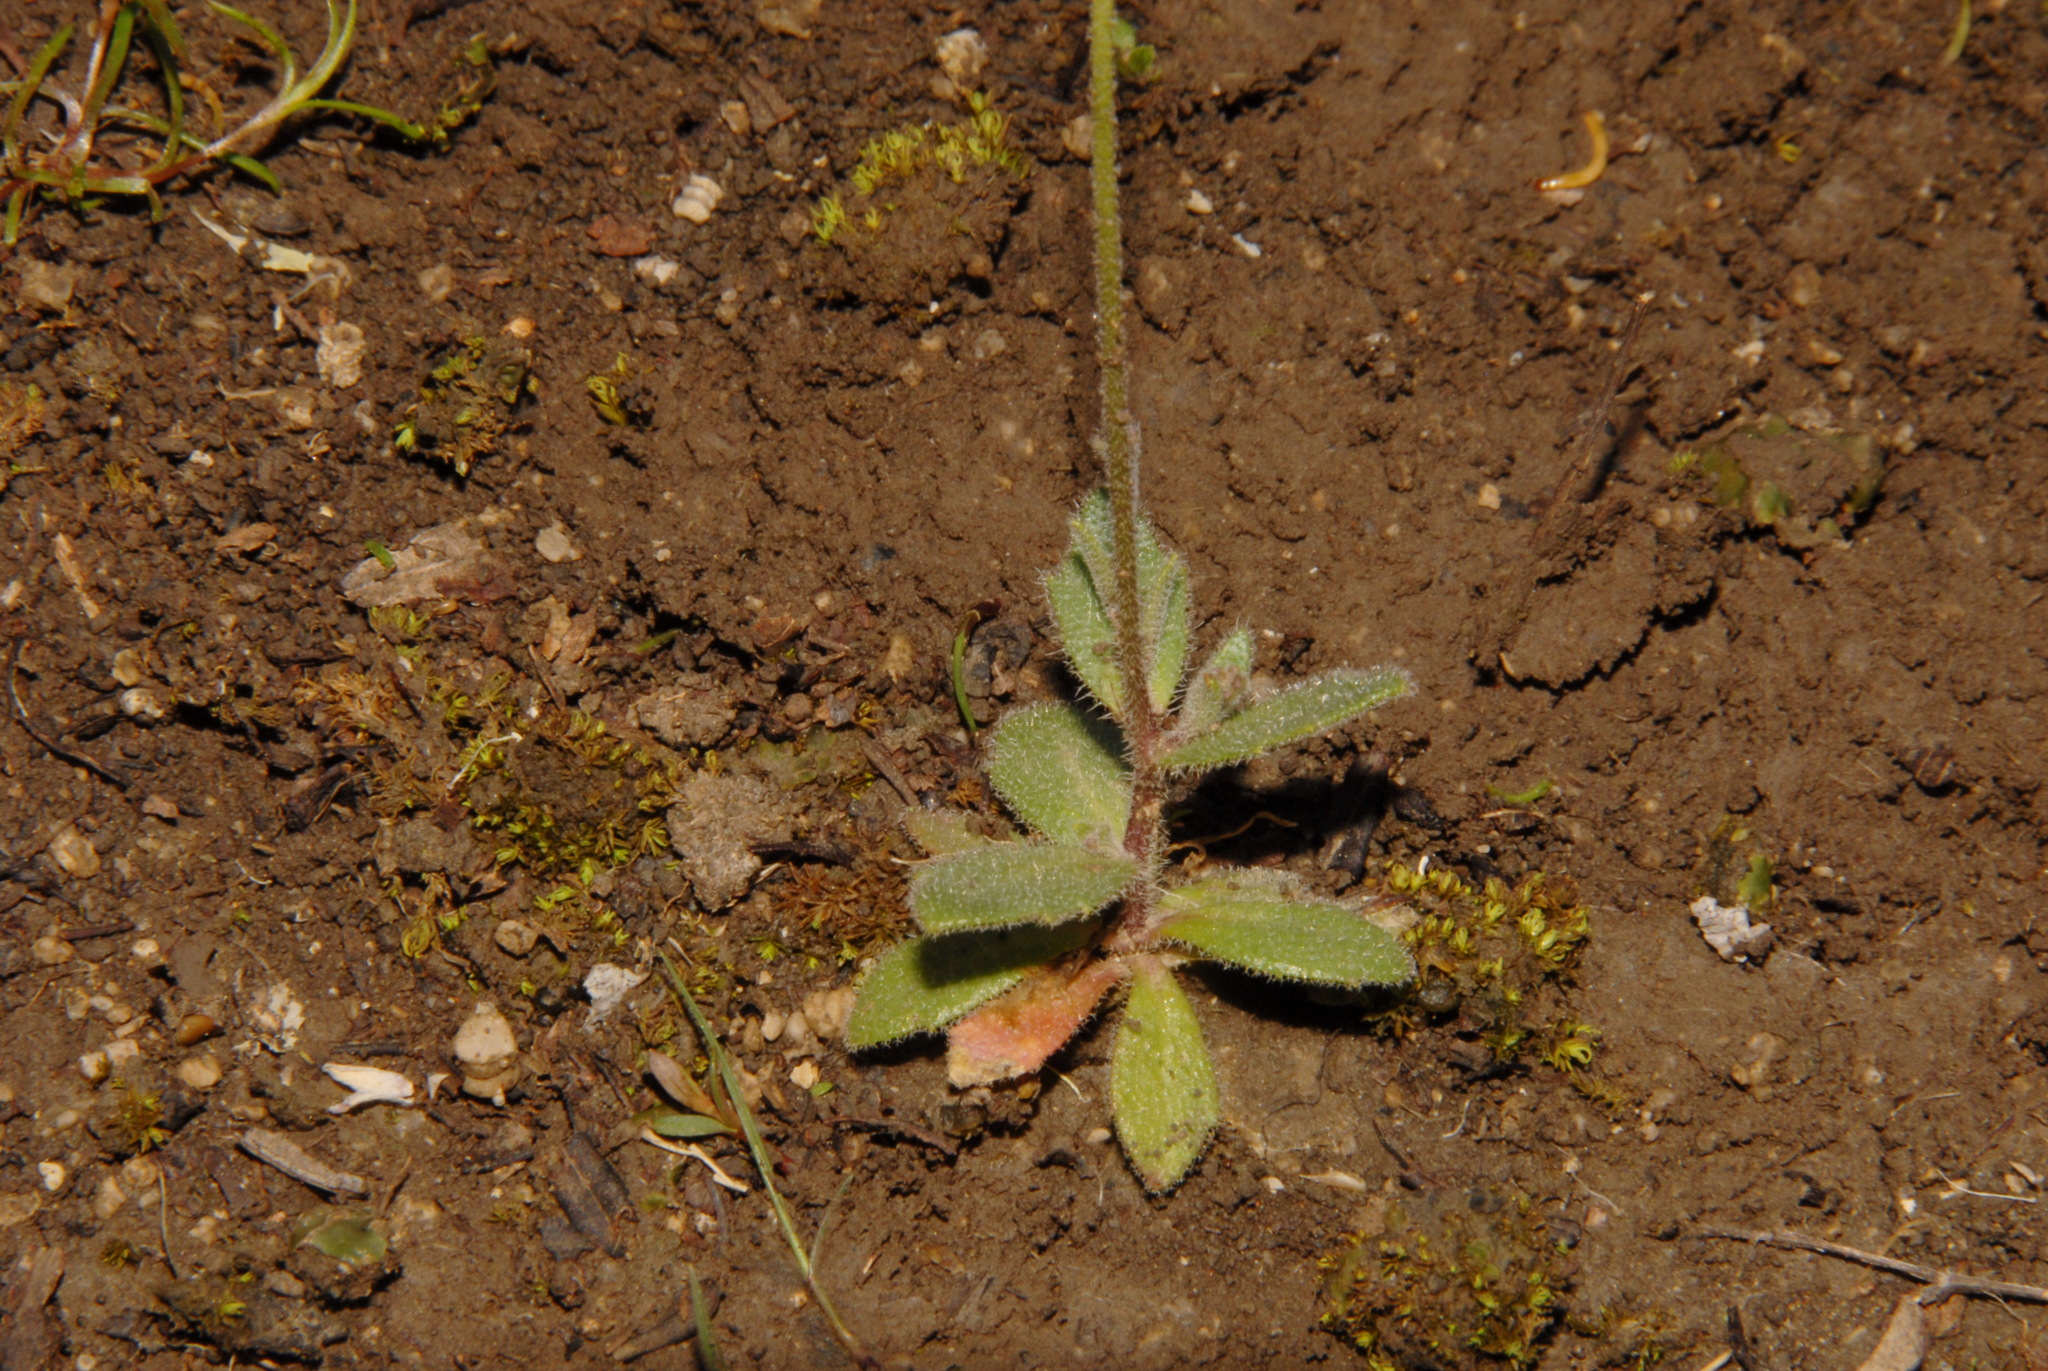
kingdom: Plantae
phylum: Tracheophyta
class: Magnoliopsida
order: Brassicales
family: Brassicaceae
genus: Tomostima
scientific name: Tomostima cuneifolia
